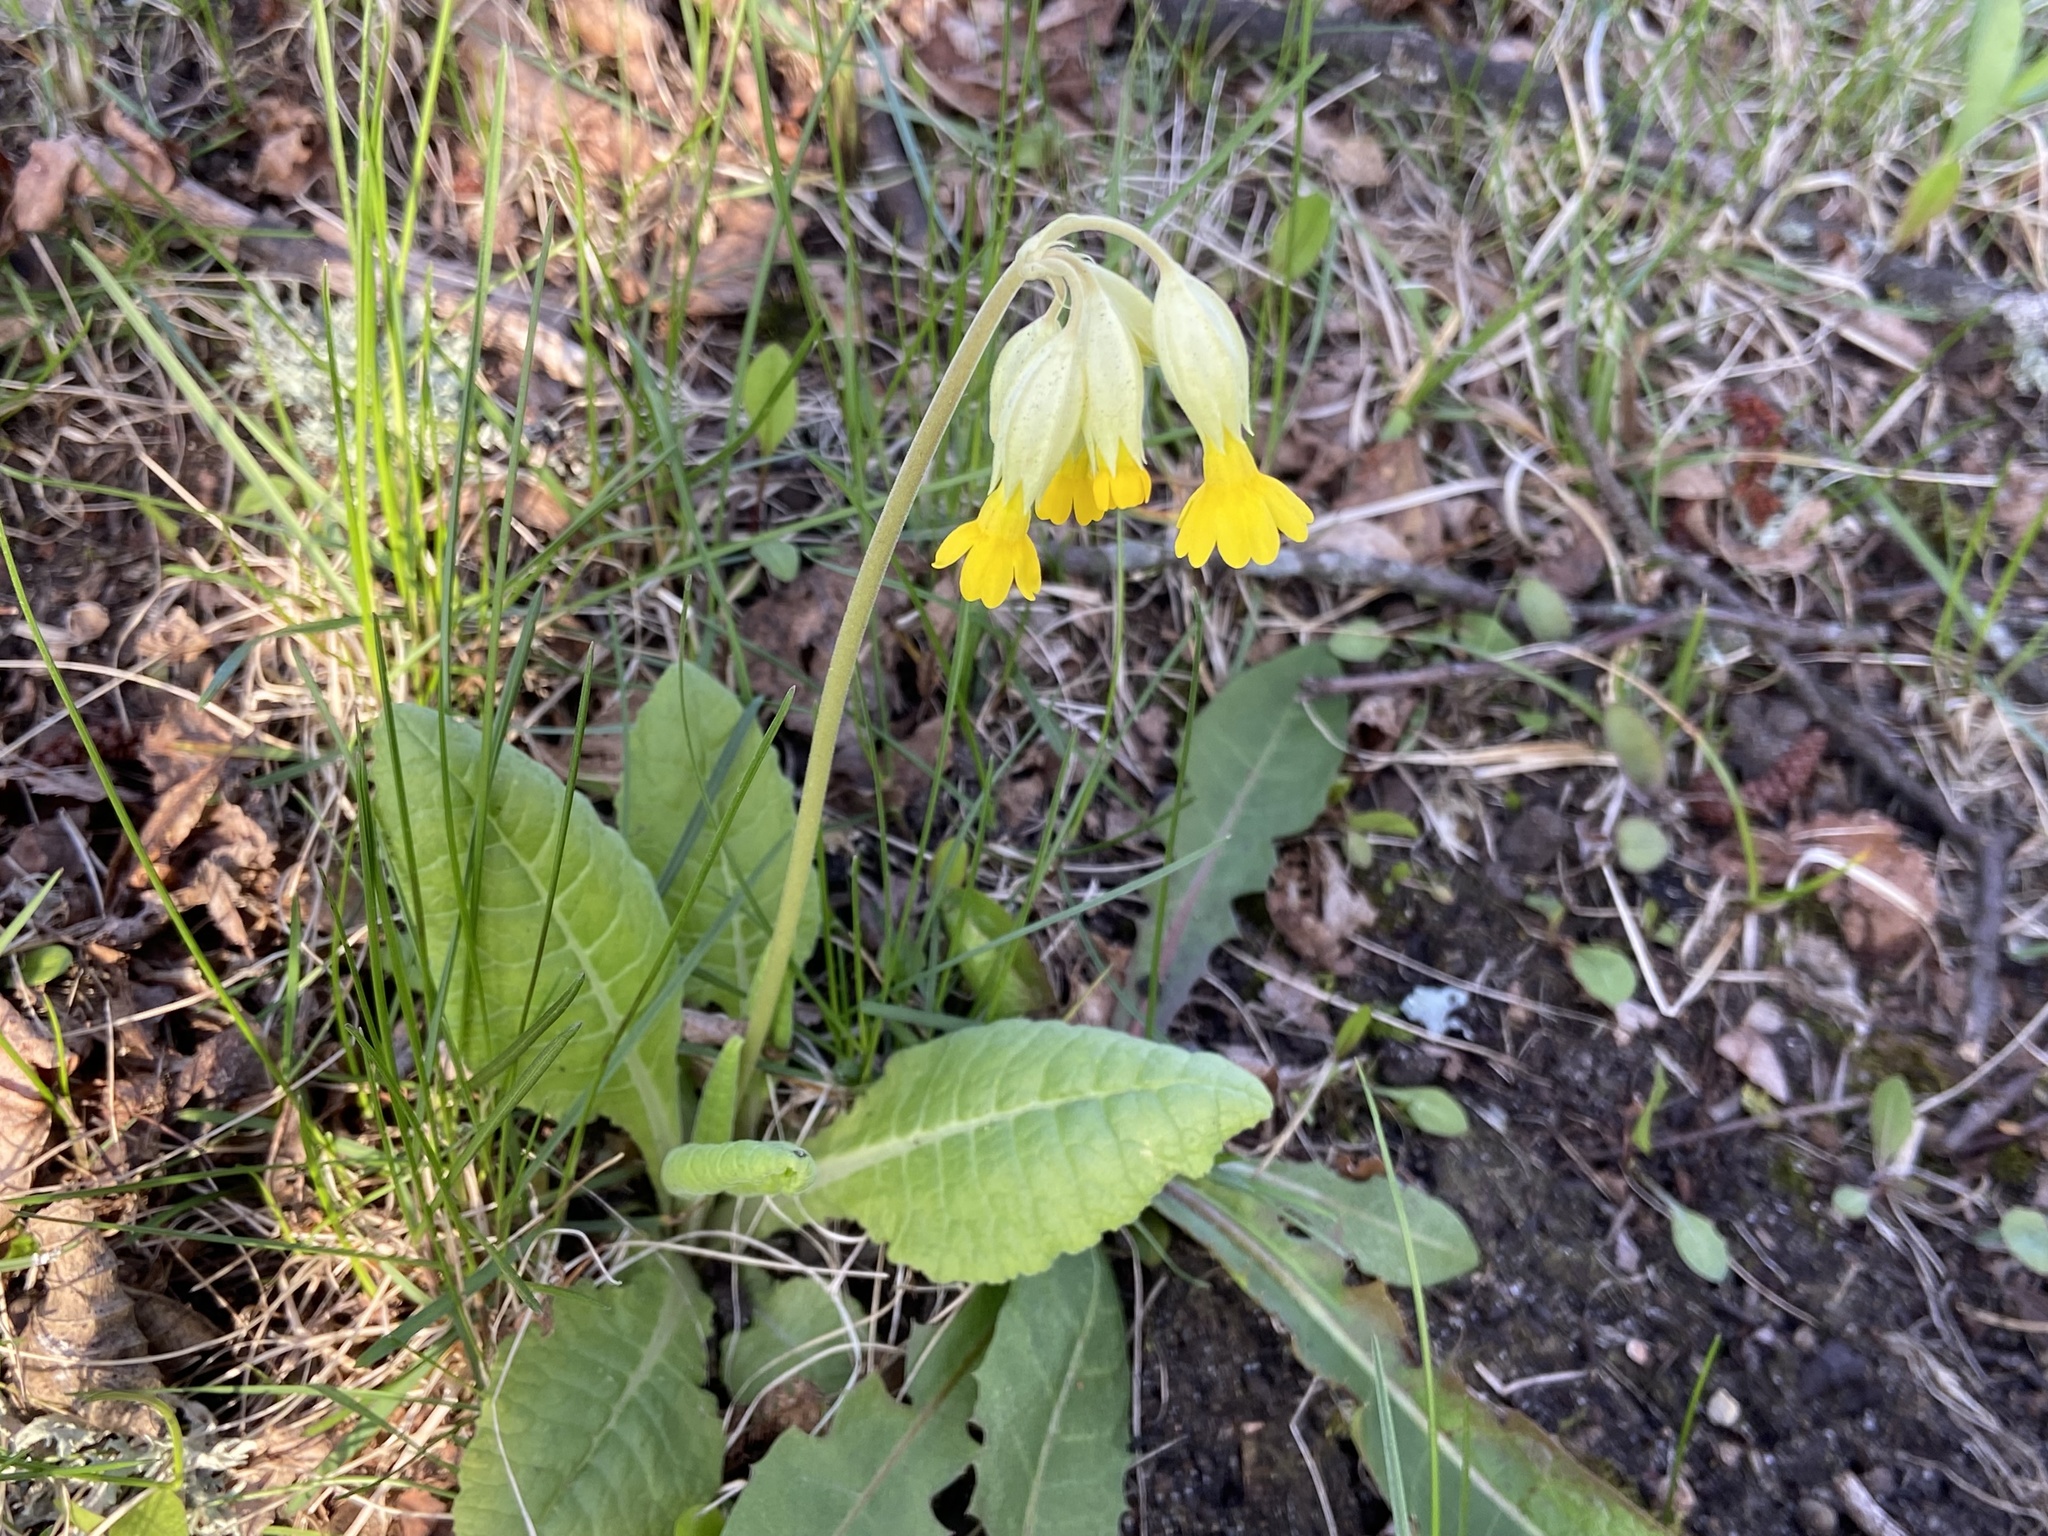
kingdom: Plantae
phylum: Tracheophyta
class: Magnoliopsida
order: Ericales
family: Primulaceae
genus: Primula
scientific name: Primula veris
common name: Cowslip
